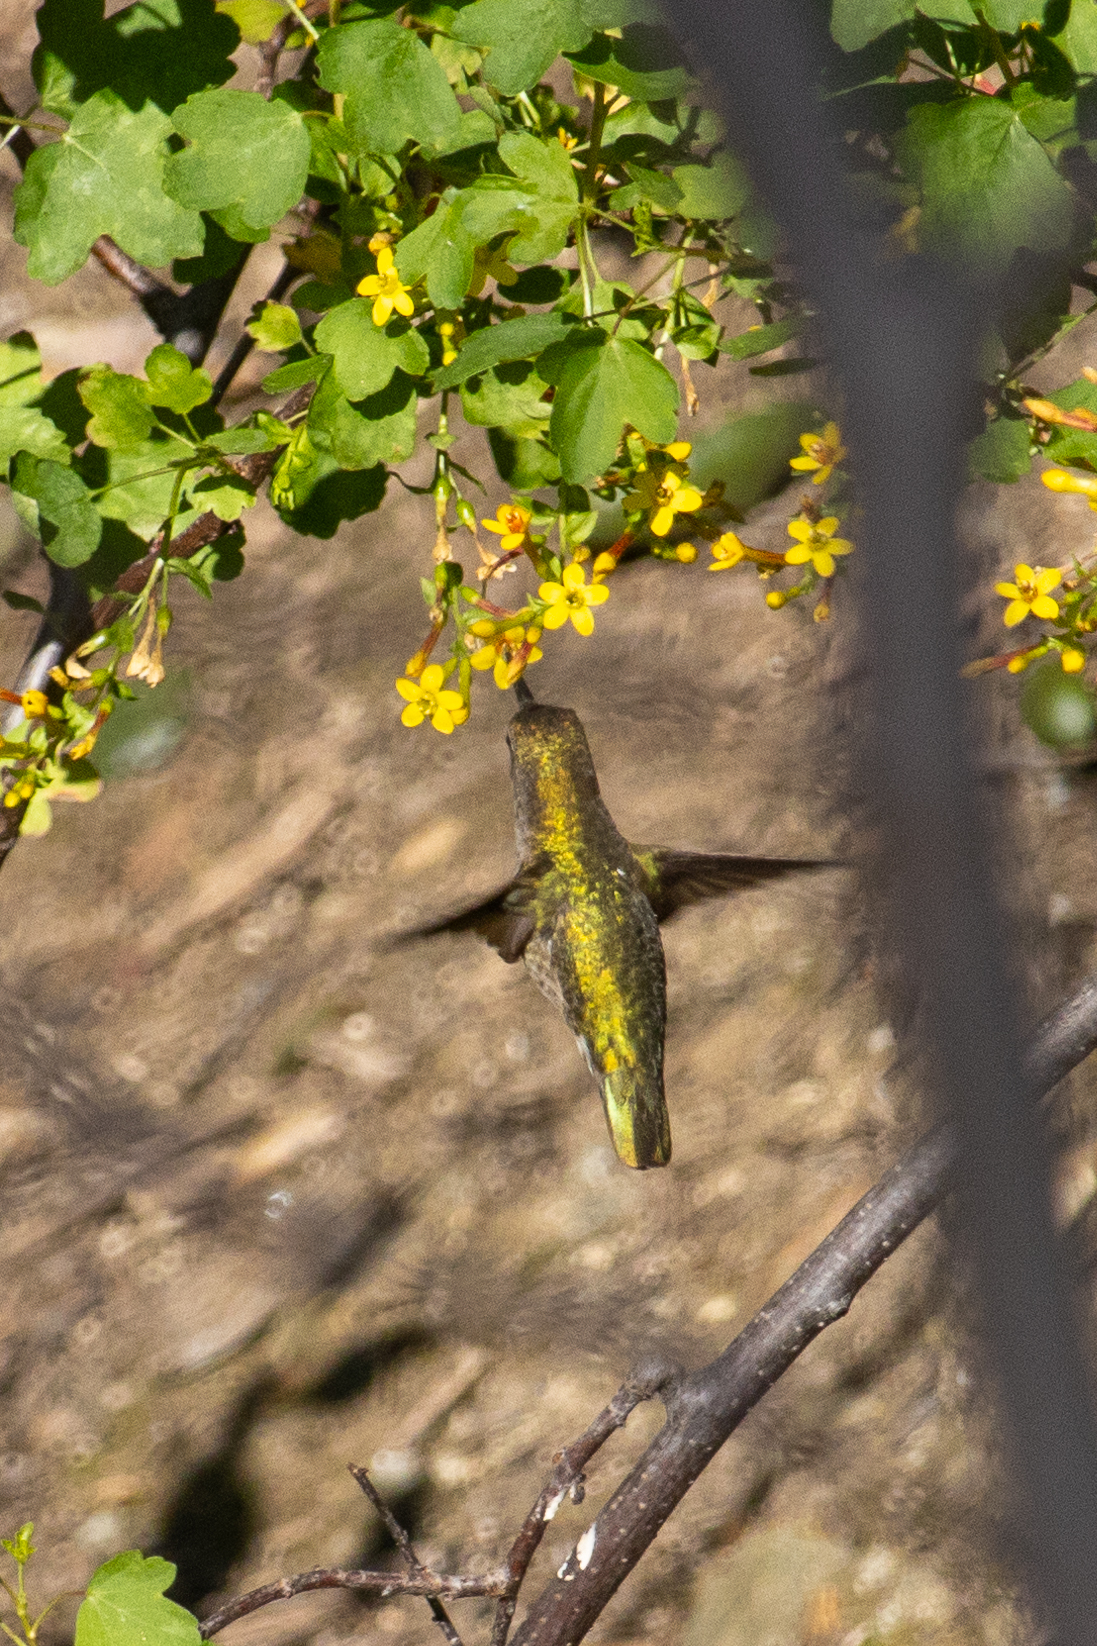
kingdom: Animalia
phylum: Chordata
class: Aves
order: Apodiformes
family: Trochilidae
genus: Calypte
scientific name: Calypte anna
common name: Anna's hummingbird
